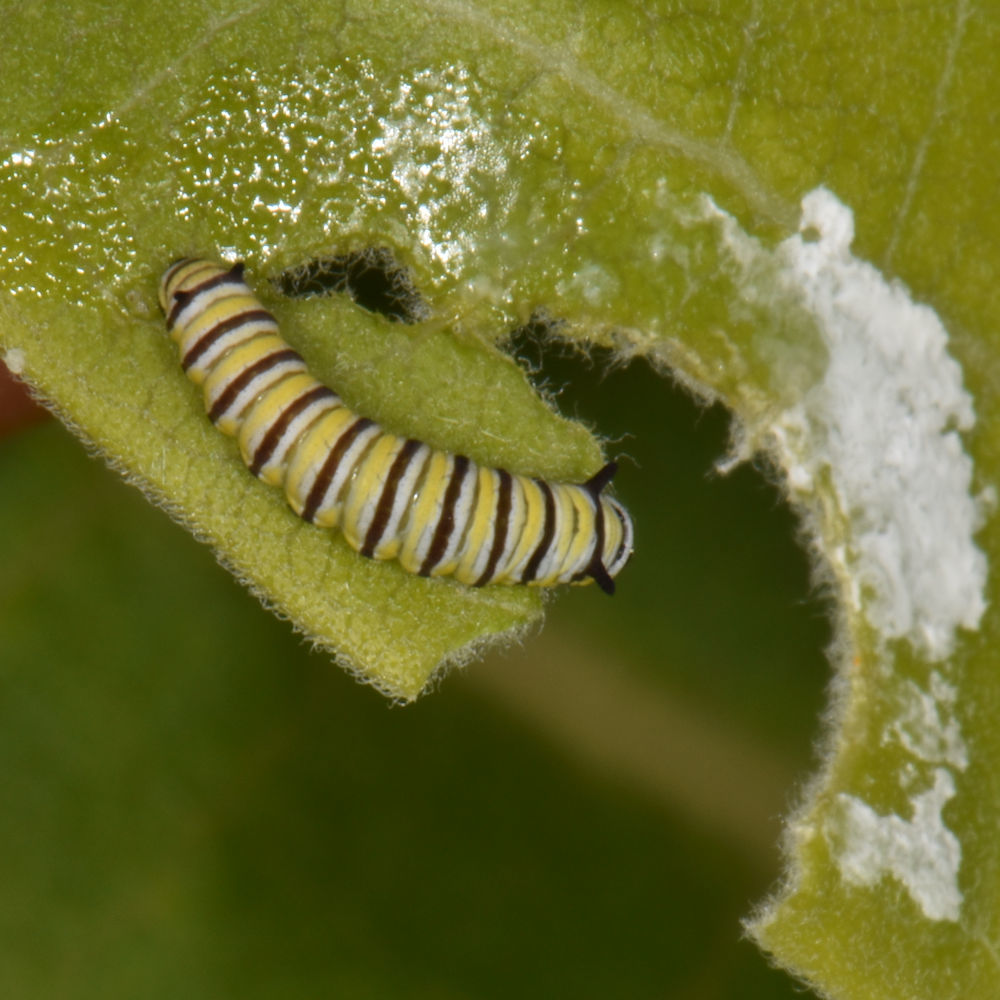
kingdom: Animalia
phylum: Arthropoda
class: Insecta
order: Lepidoptera
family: Nymphalidae
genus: Danaus
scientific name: Danaus plexippus
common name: Monarch
